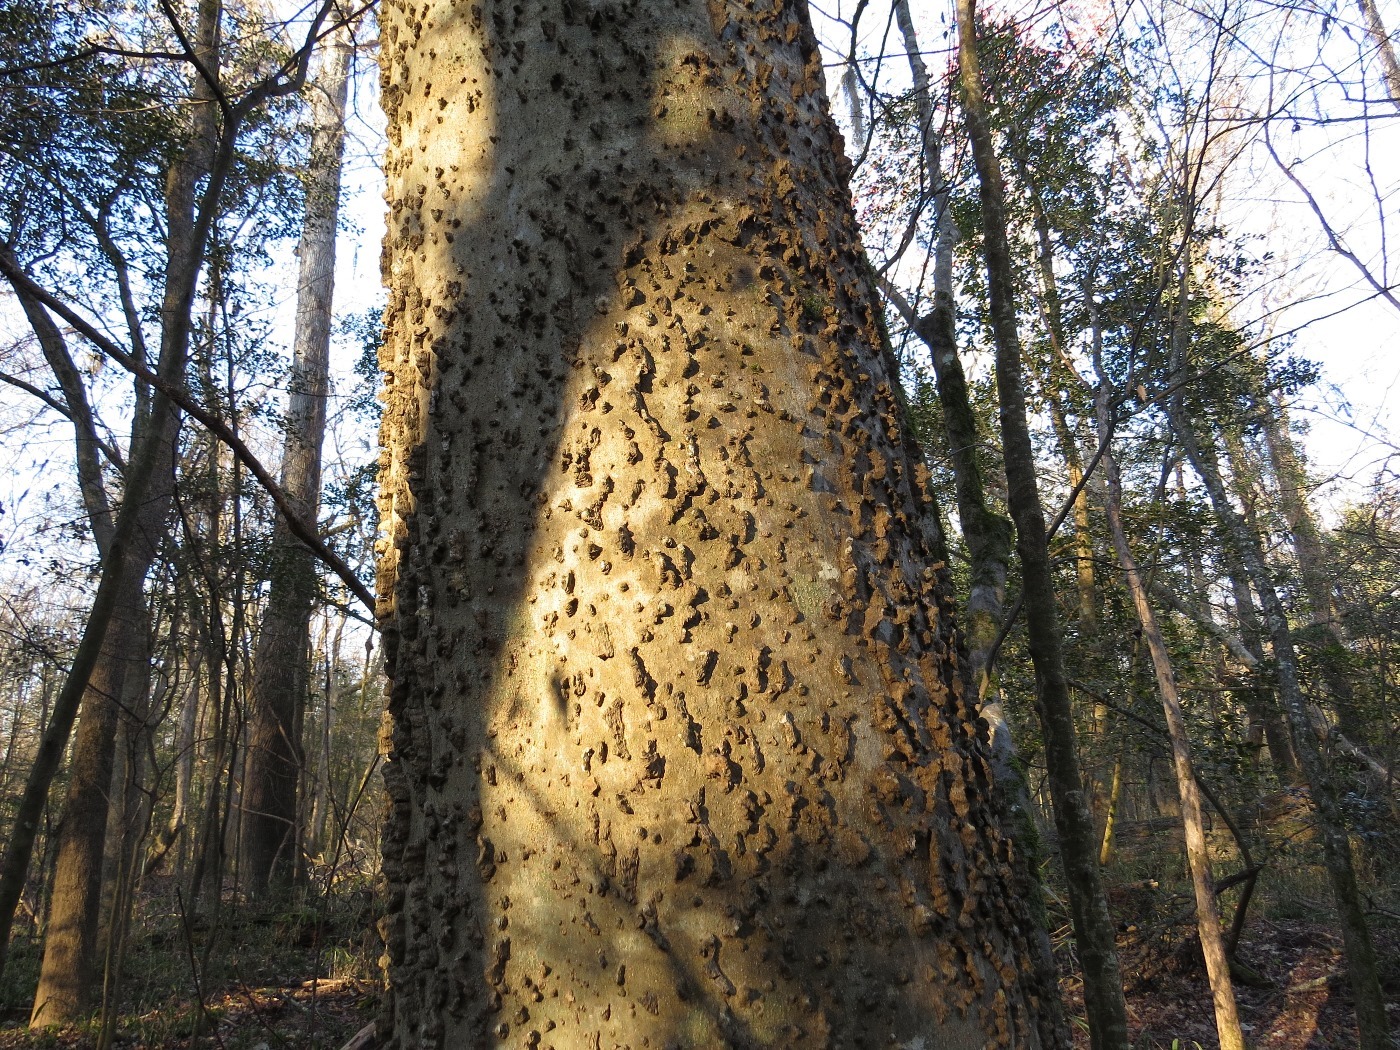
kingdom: Plantae
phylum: Tracheophyta
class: Magnoliopsida
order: Rosales
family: Cannabaceae
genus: Celtis
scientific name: Celtis laevigata
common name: Sugarberry
